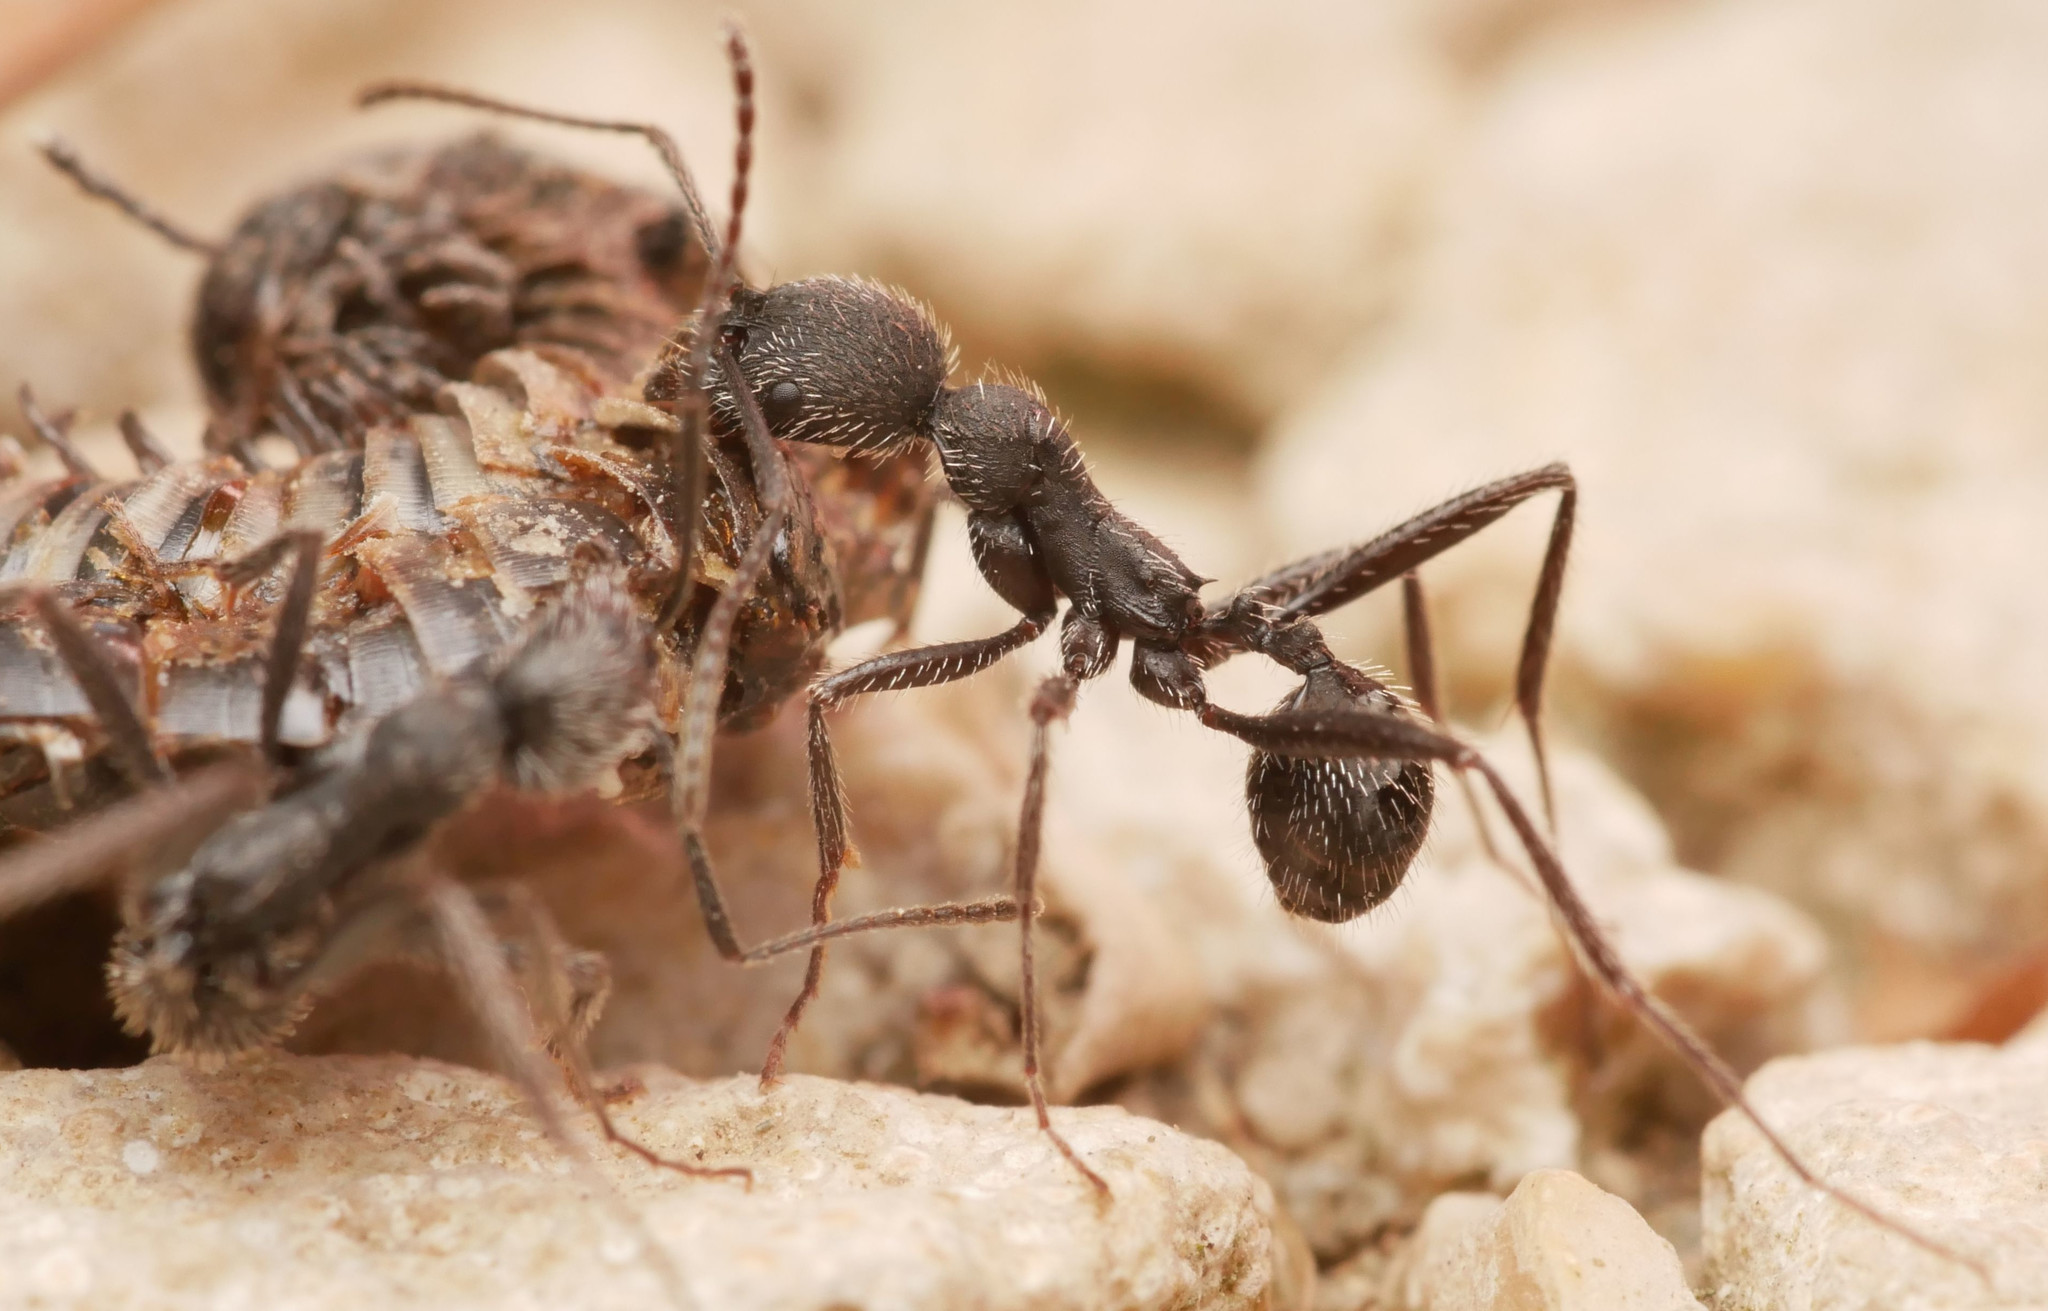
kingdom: Animalia
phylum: Arthropoda
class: Insecta
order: Hymenoptera
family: Formicidae
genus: Aphaenogaster
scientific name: Aphaenogaster senilis
